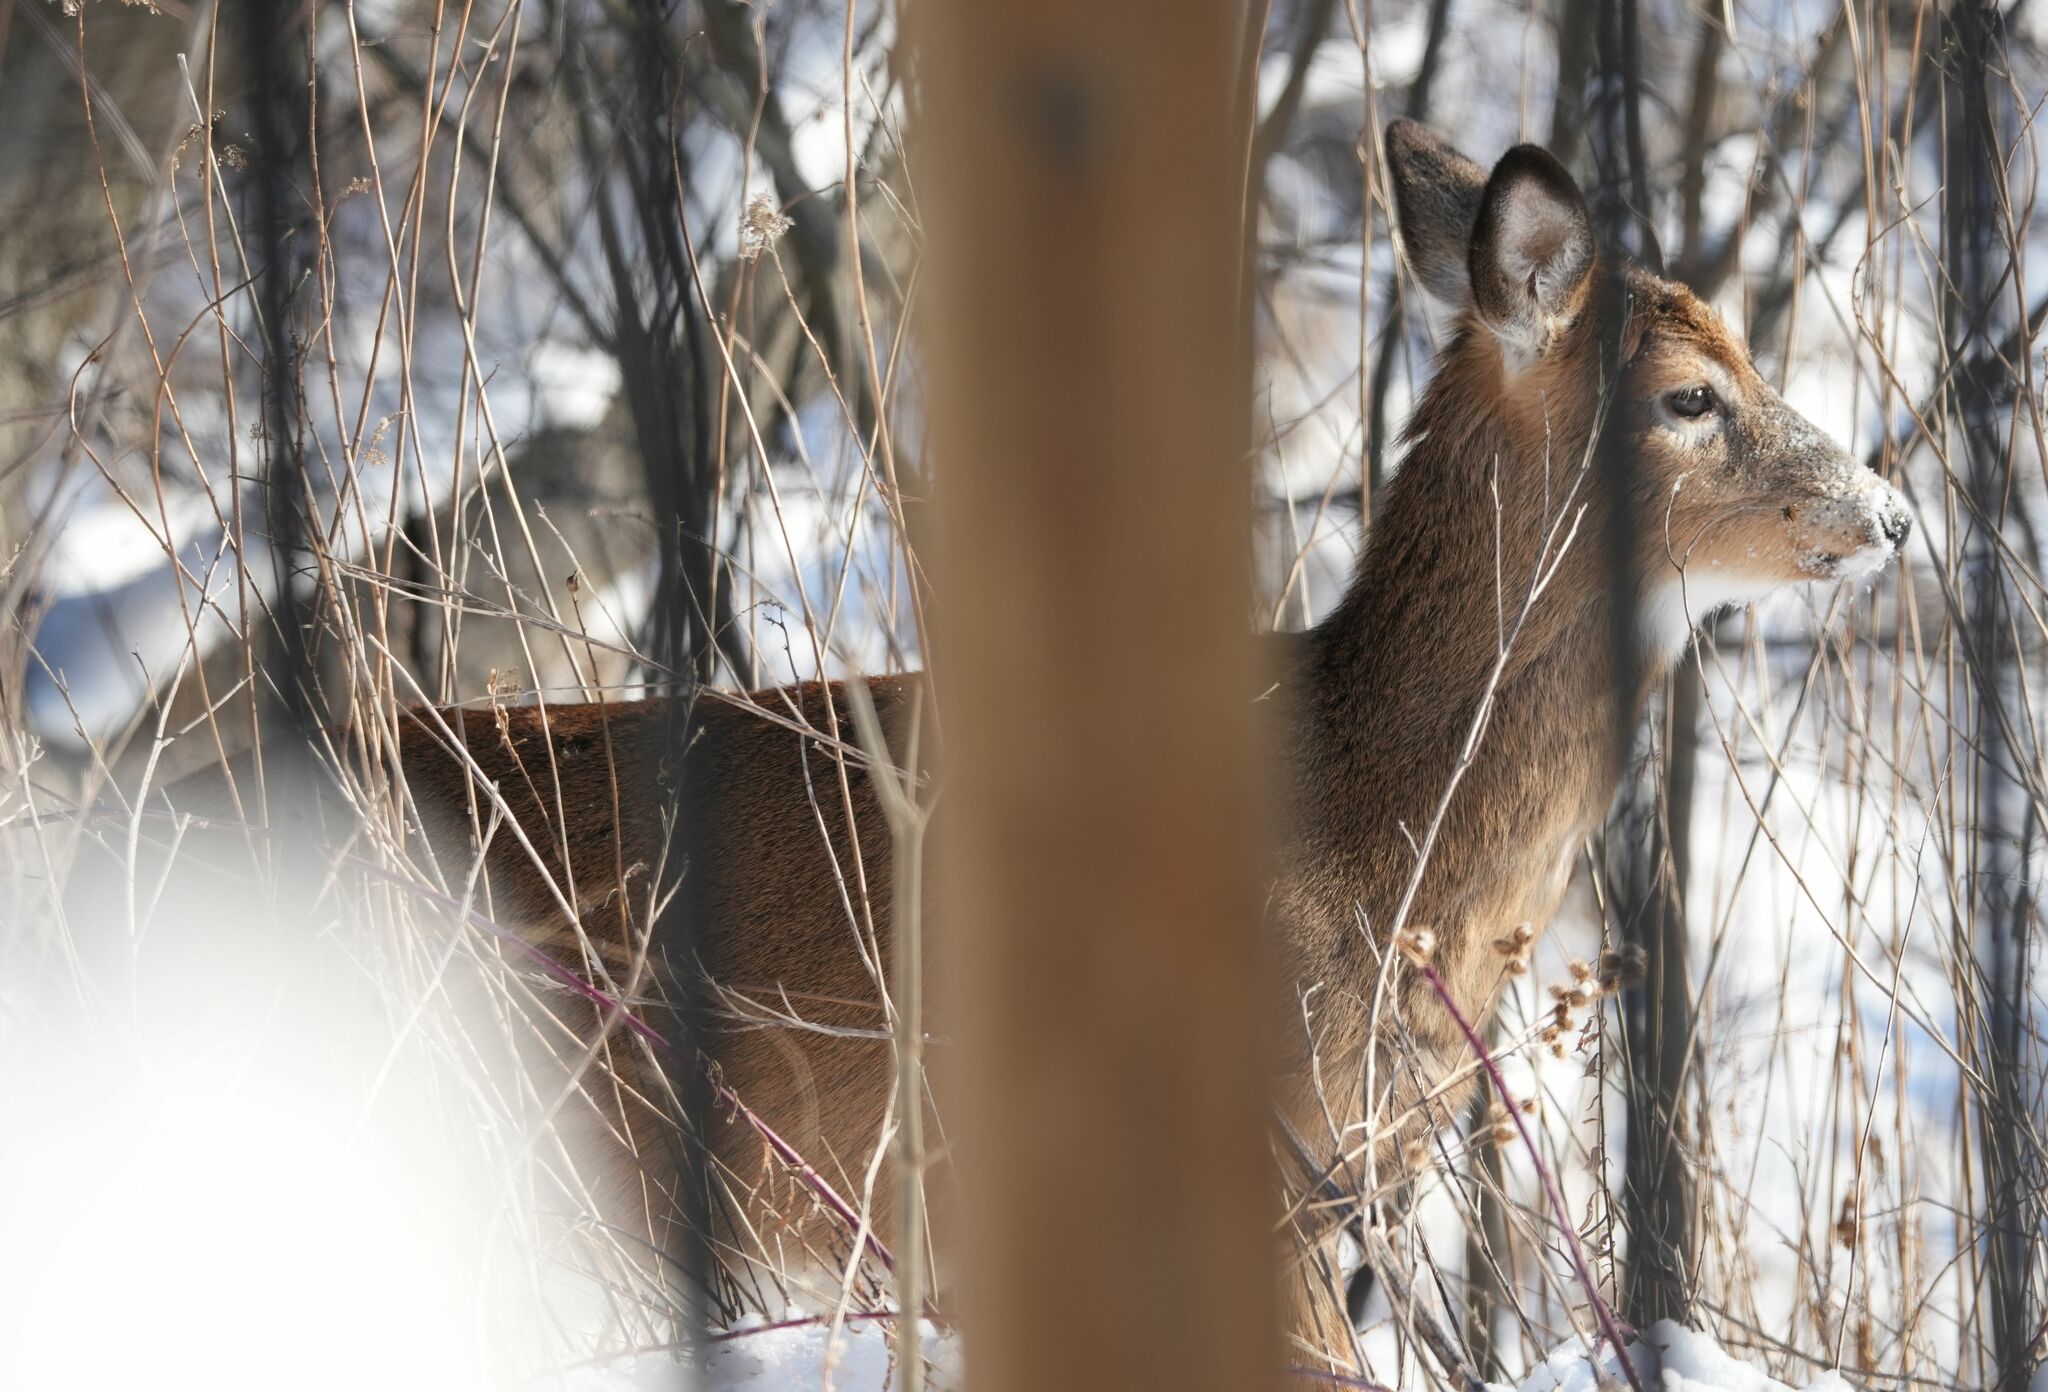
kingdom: Animalia
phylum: Chordata
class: Mammalia
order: Artiodactyla
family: Cervidae
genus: Odocoileus
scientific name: Odocoileus virginianus
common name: White-tailed deer
